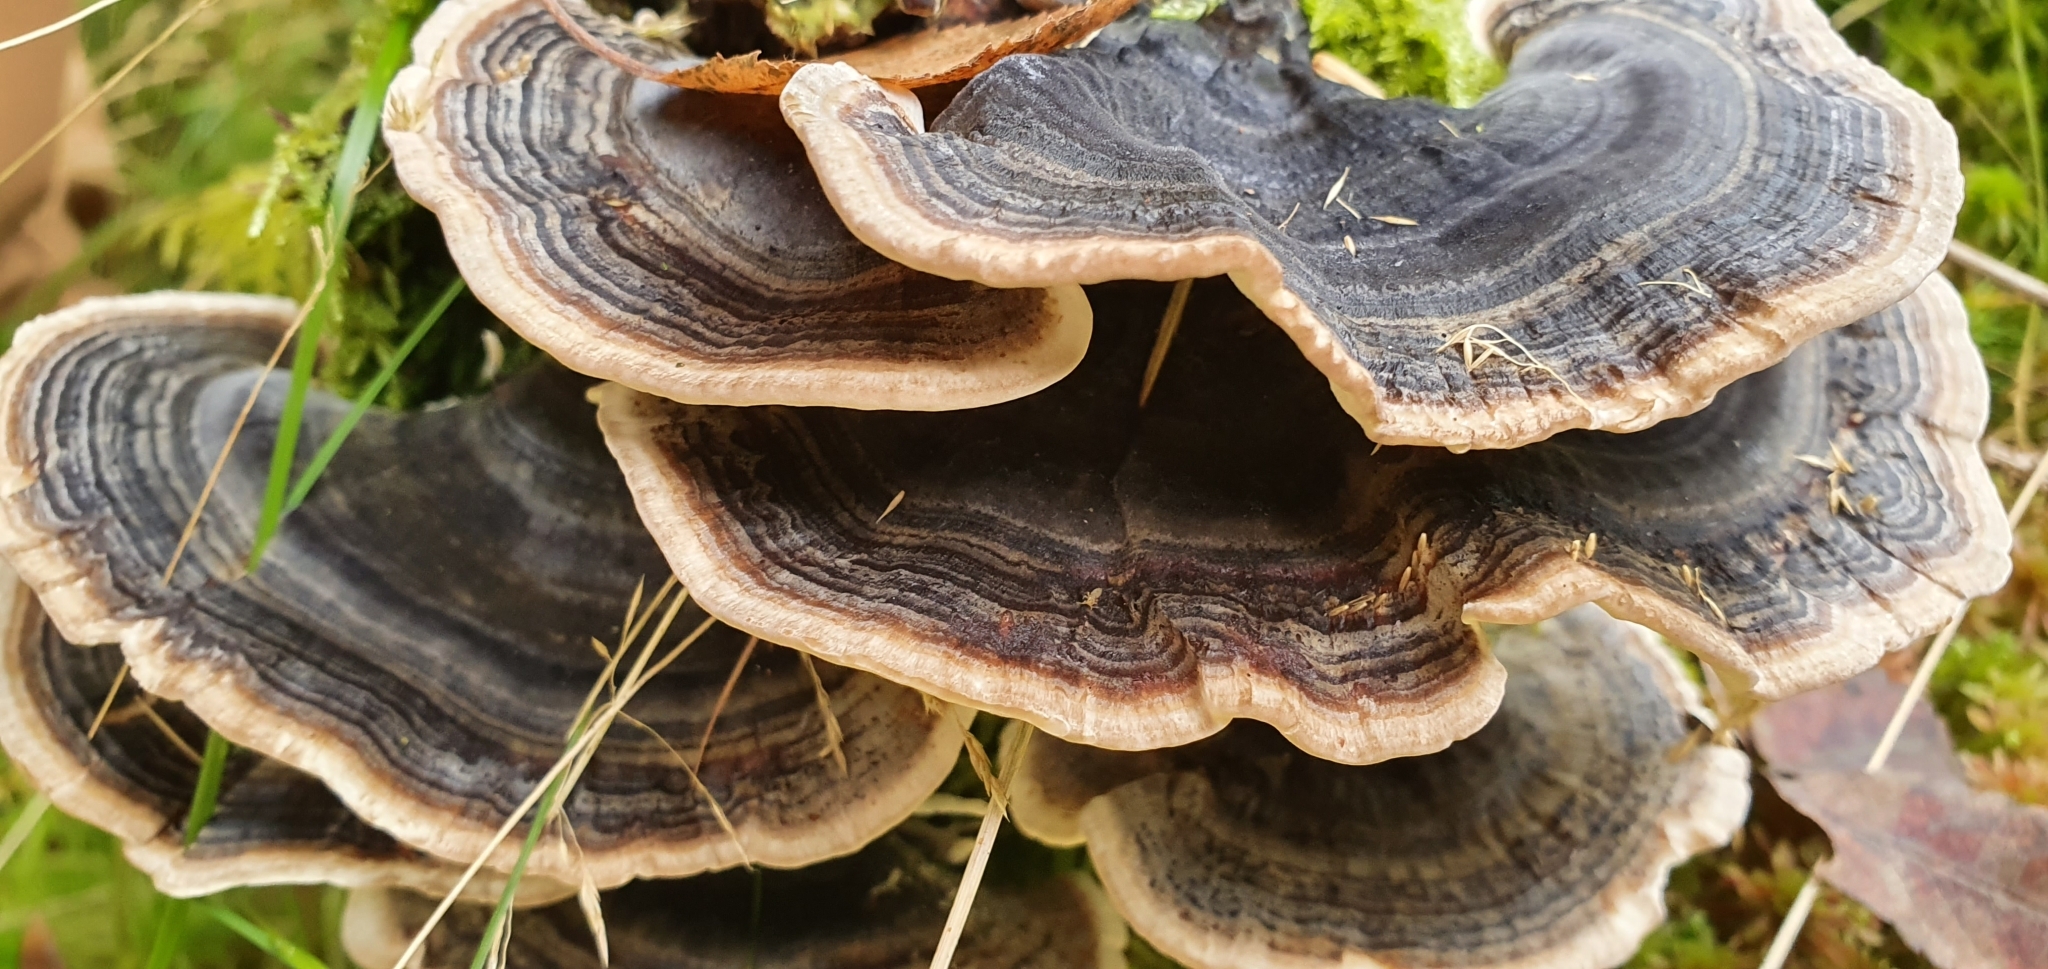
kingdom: Fungi
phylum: Basidiomycota
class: Agaricomycetes
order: Polyporales
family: Polyporaceae
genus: Trametes
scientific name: Trametes versicolor
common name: Turkeytail
